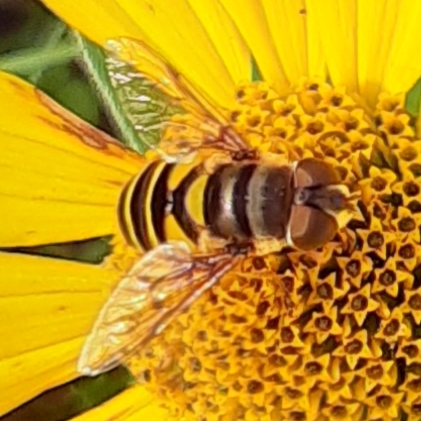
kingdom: Animalia
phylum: Arthropoda
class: Insecta
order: Diptera
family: Syrphidae
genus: Eristalis
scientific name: Eristalis transversa
